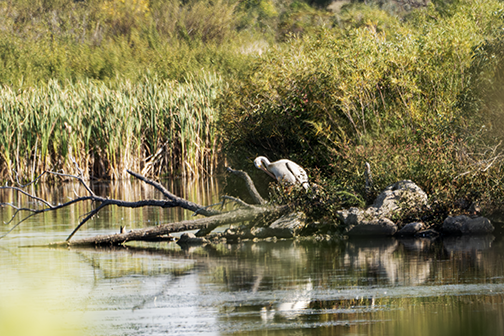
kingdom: Animalia
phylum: Chordata
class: Aves
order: Pelecaniformes
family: Ardeidae
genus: Ardea
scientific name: Ardea alba
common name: Great egret
